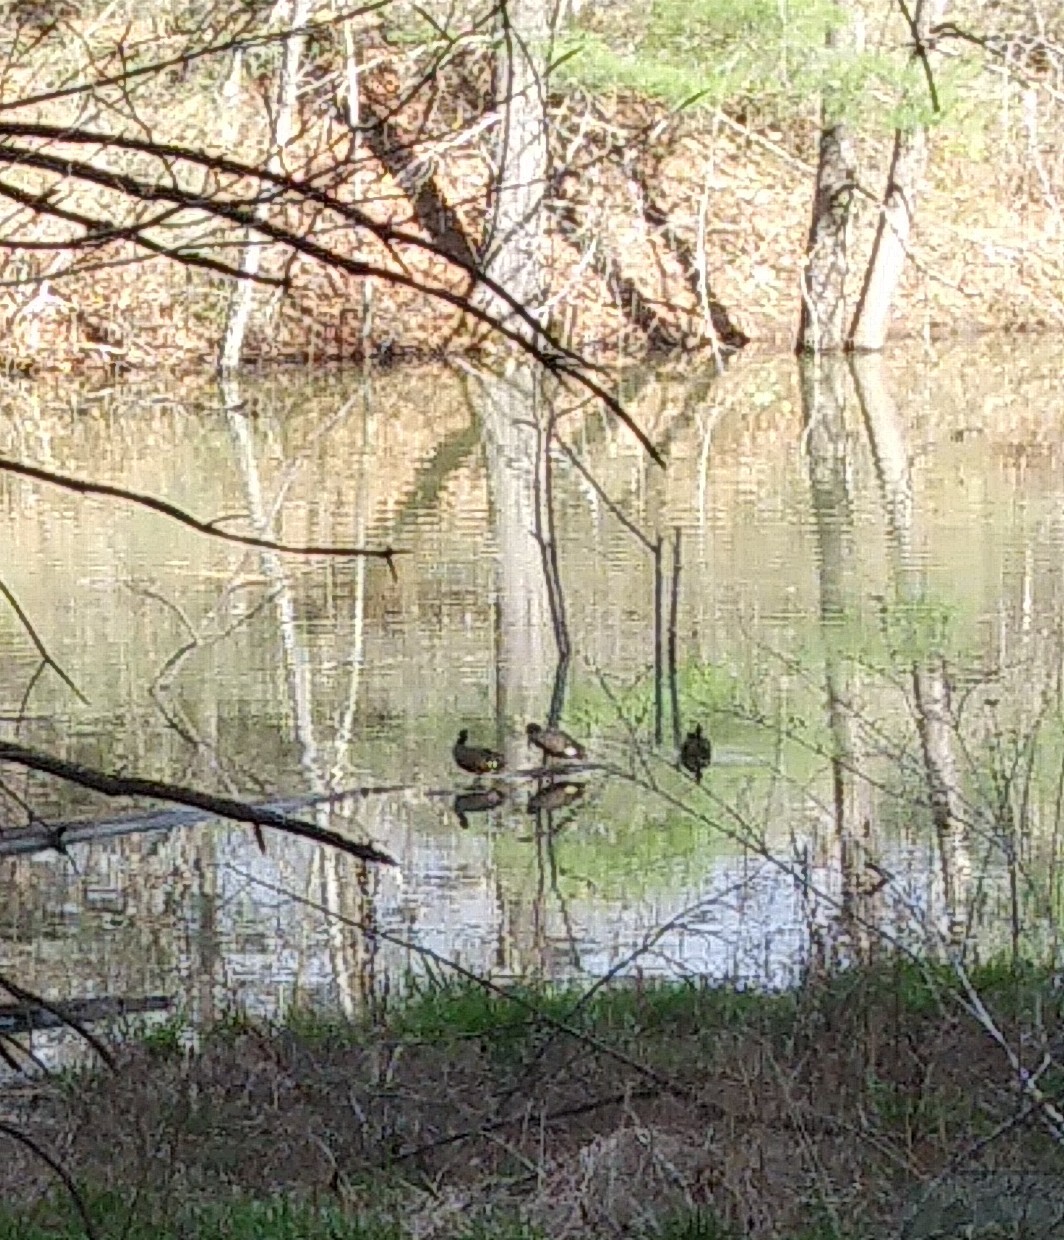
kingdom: Animalia
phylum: Chordata
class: Aves
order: Anseriformes
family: Anatidae
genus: Branta
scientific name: Branta canadensis
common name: Canada goose
